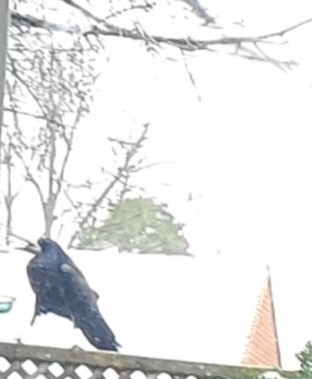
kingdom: Animalia
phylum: Chordata
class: Aves
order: Passeriformes
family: Corvidae
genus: Corvus
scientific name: Corvus frugilegus
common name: Rook
